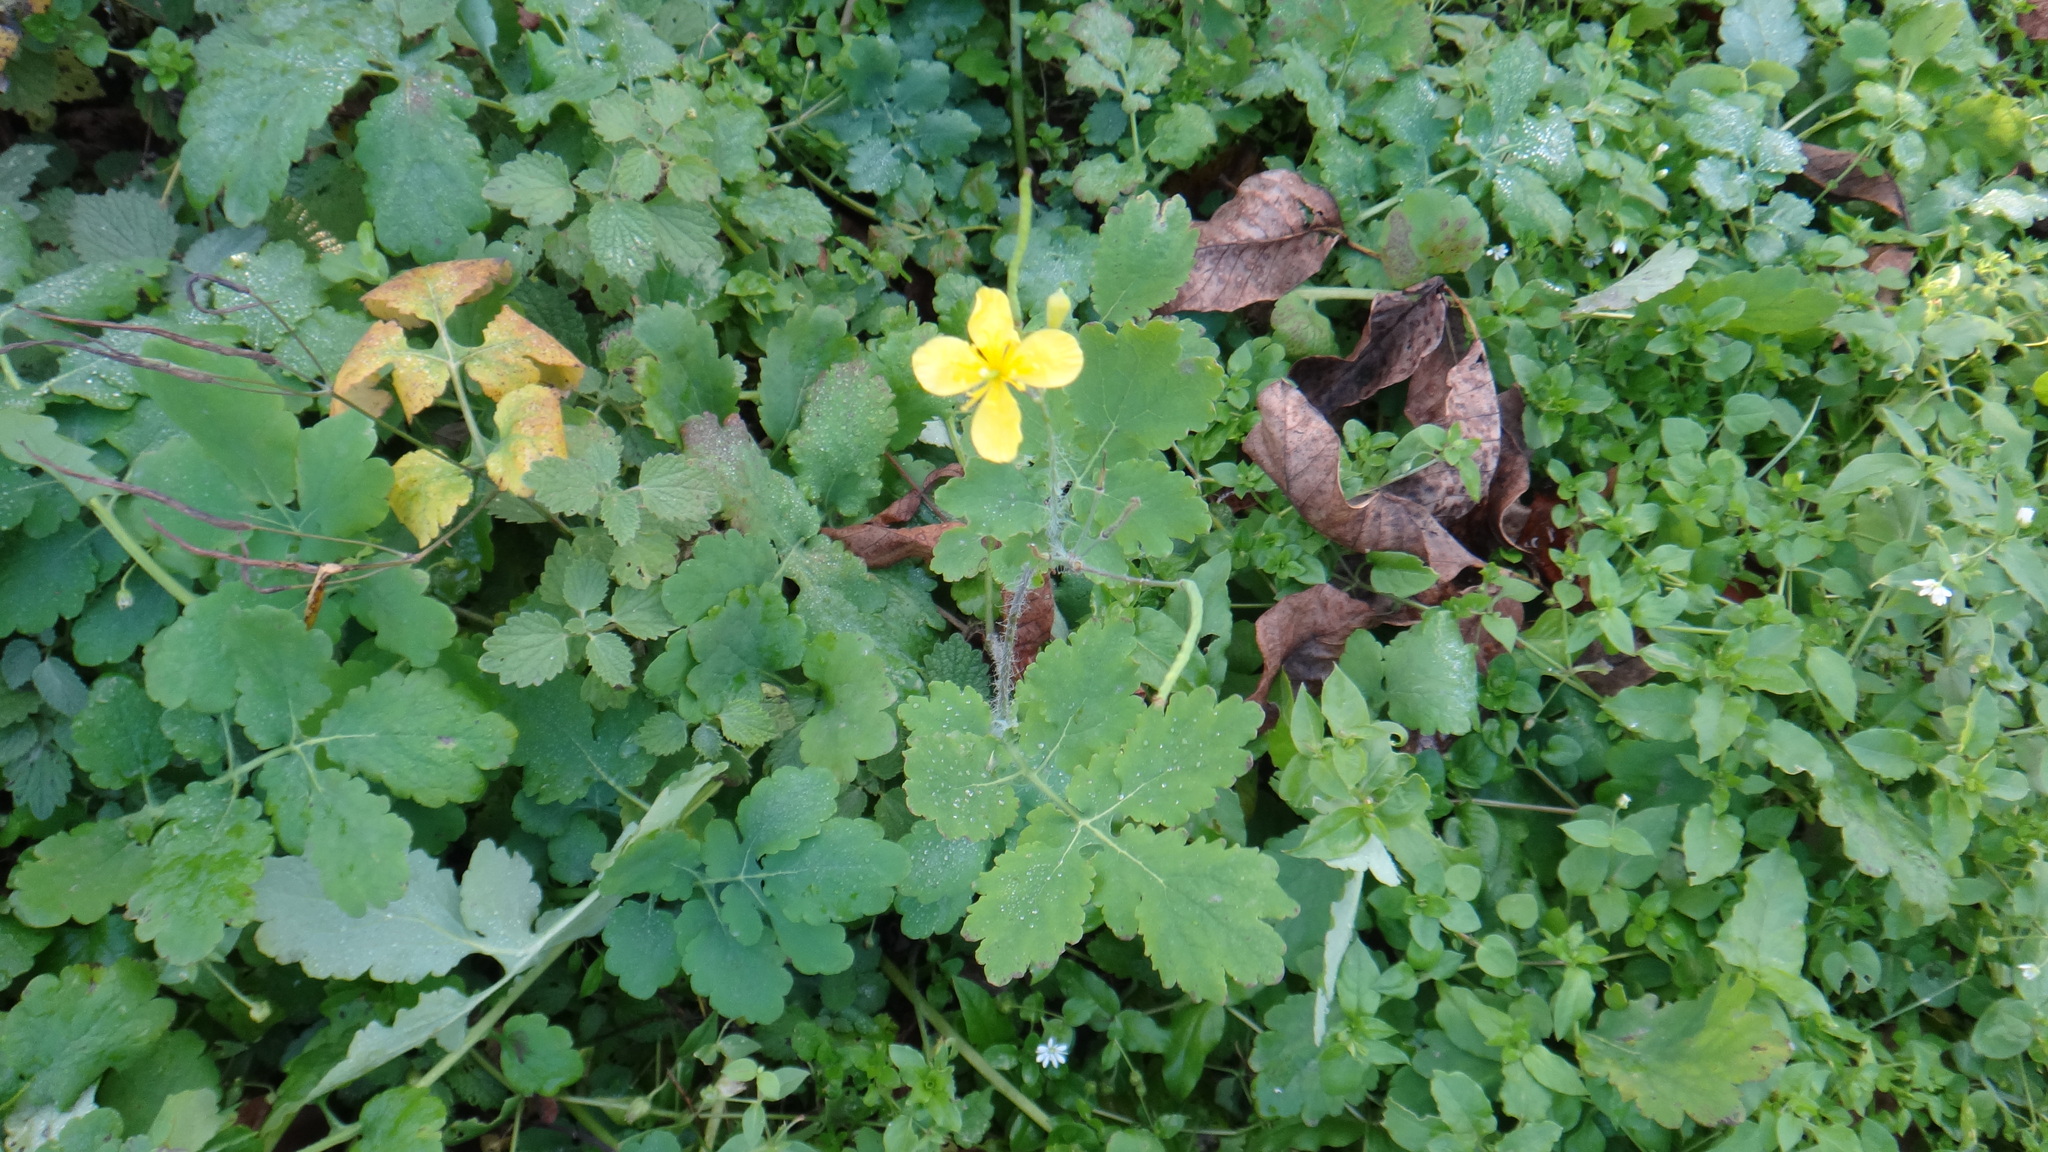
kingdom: Plantae
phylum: Tracheophyta
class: Magnoliopsida
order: Ranunculales
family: Papaveraceae
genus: Chelidonium
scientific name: Chelidonium majus
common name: Greater celandine
